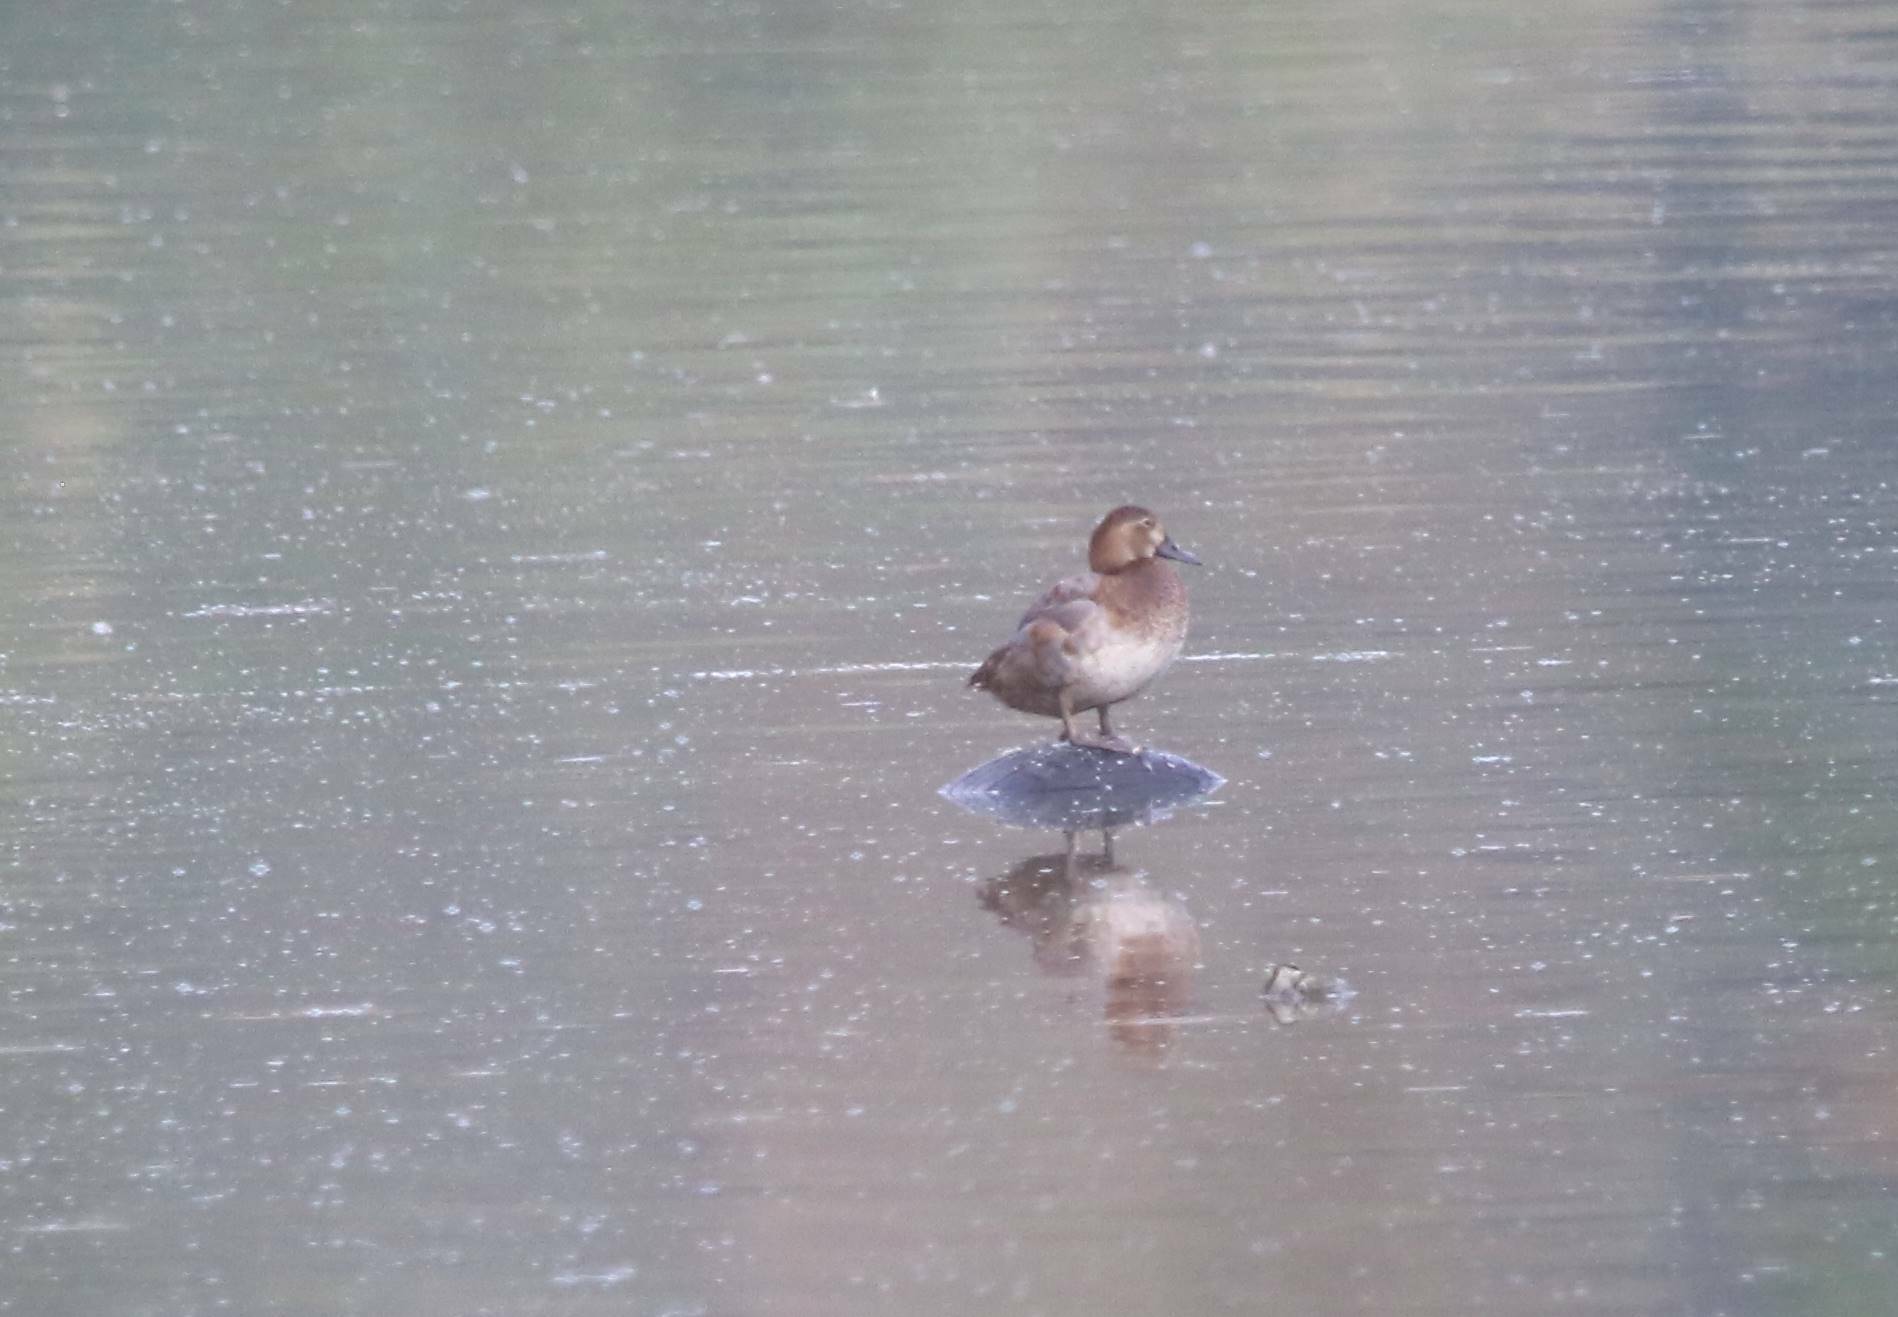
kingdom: Animalia
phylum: Chordata
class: Aves
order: Anseriformes
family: Anatidae
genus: Aythya
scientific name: Aythya ferina
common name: Common pochard
